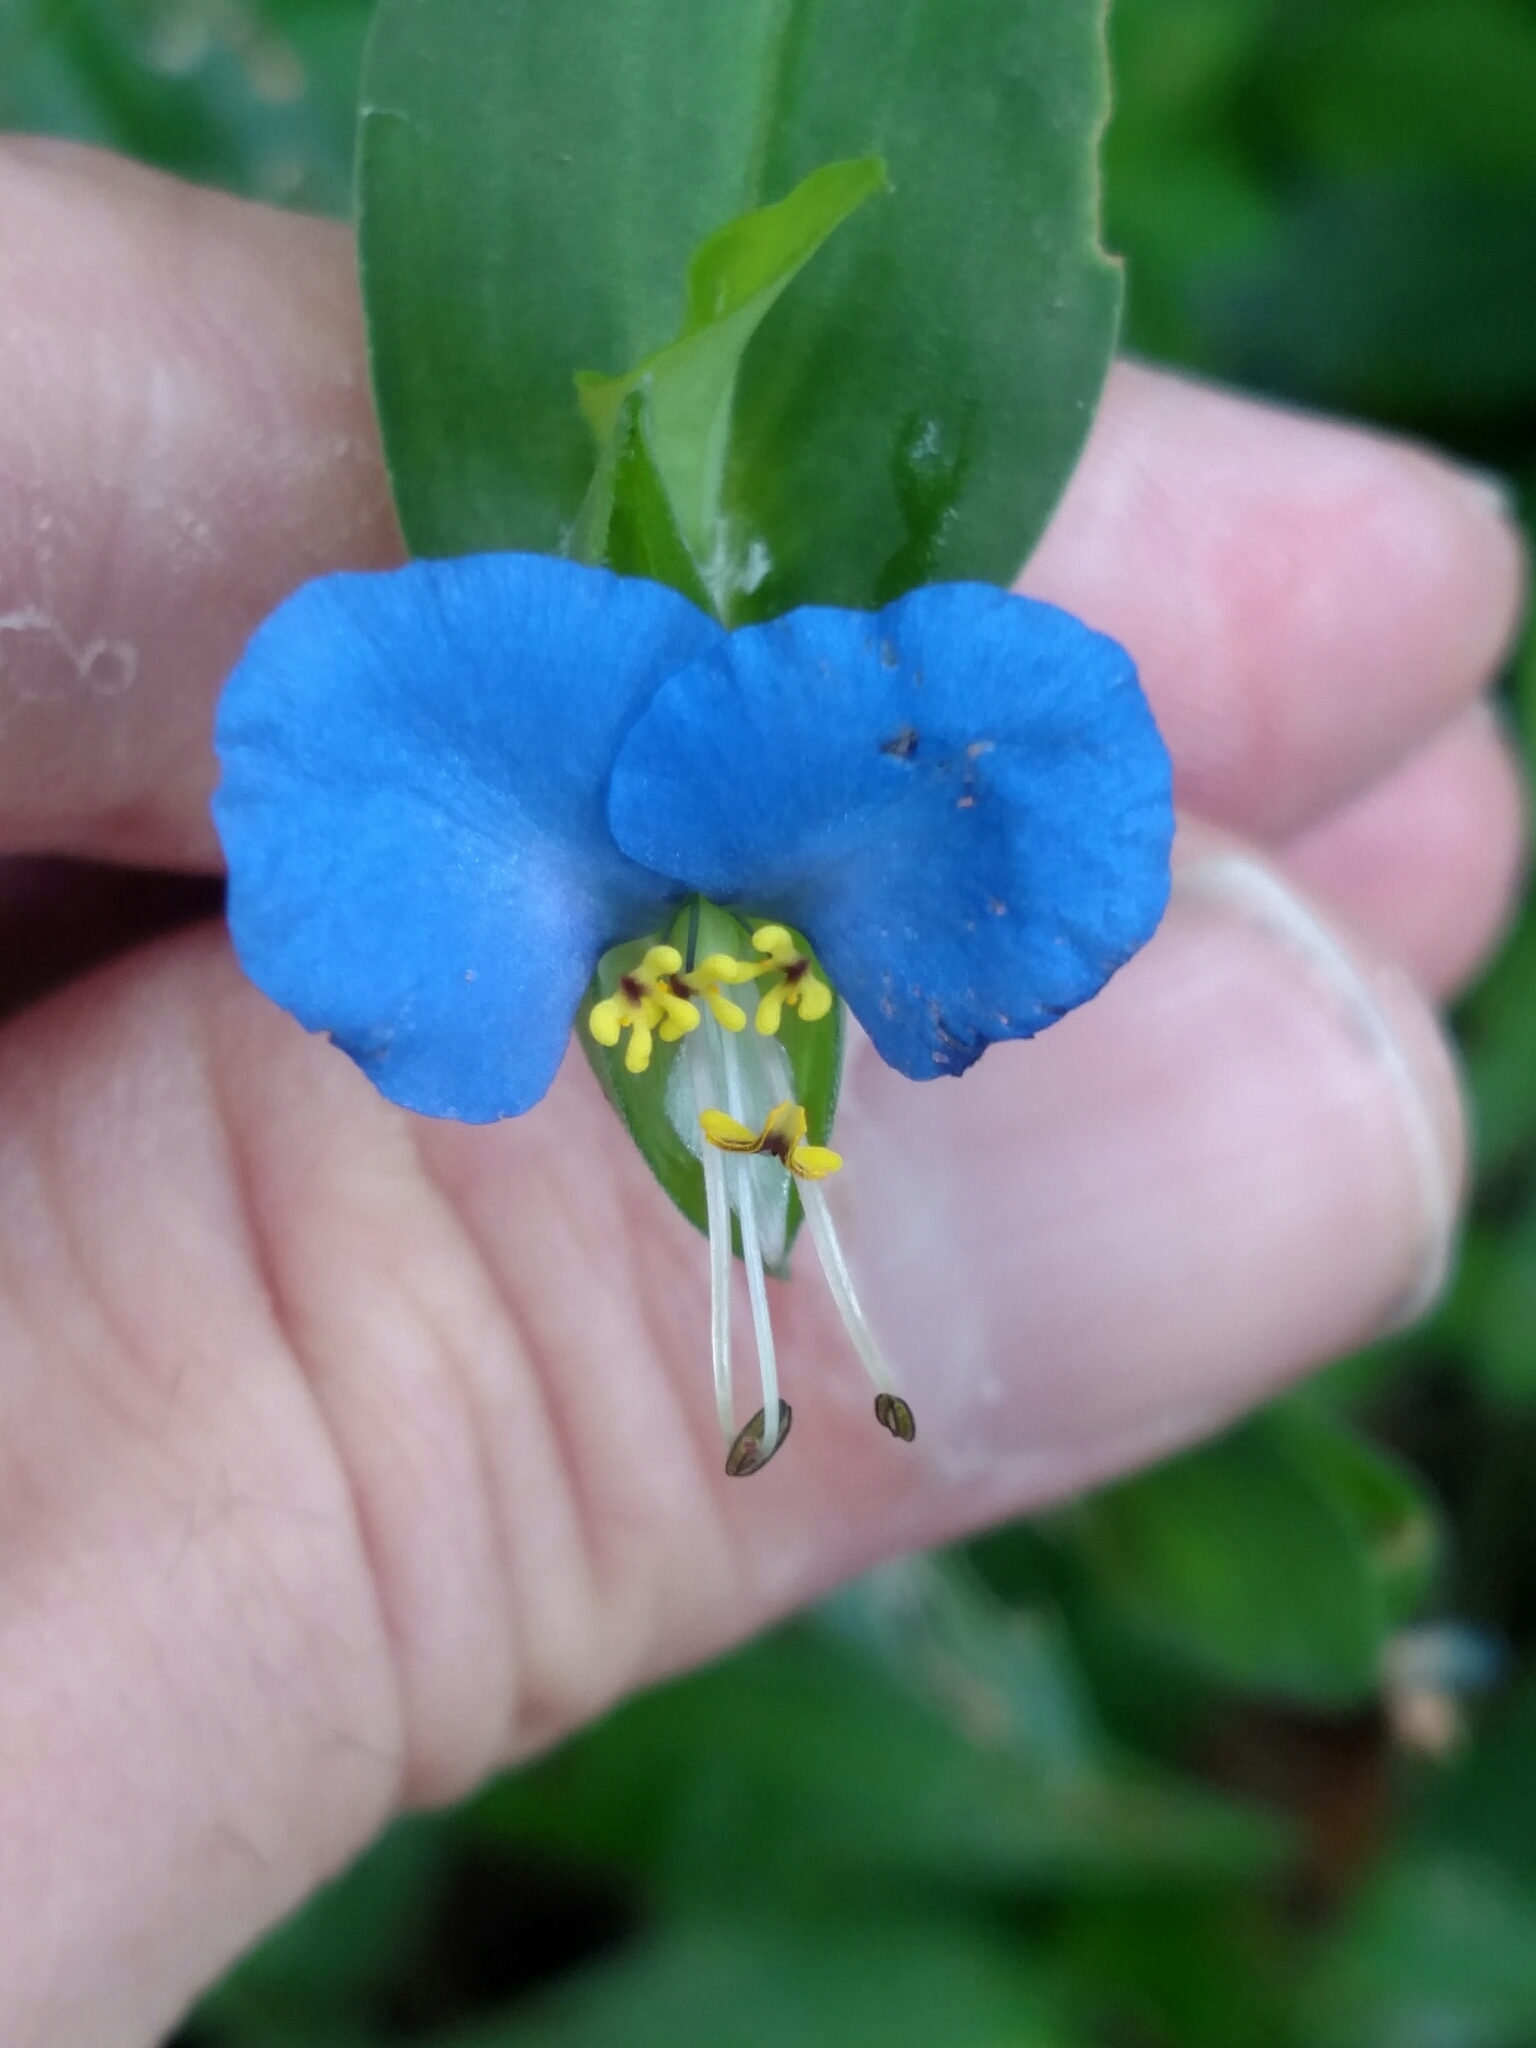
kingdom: Plantae
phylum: Tracheophyta
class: Liliopsida
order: Commelinales
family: Commelinaceae
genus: Commelina
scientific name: Commelina communis
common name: Asiatic dayflower
